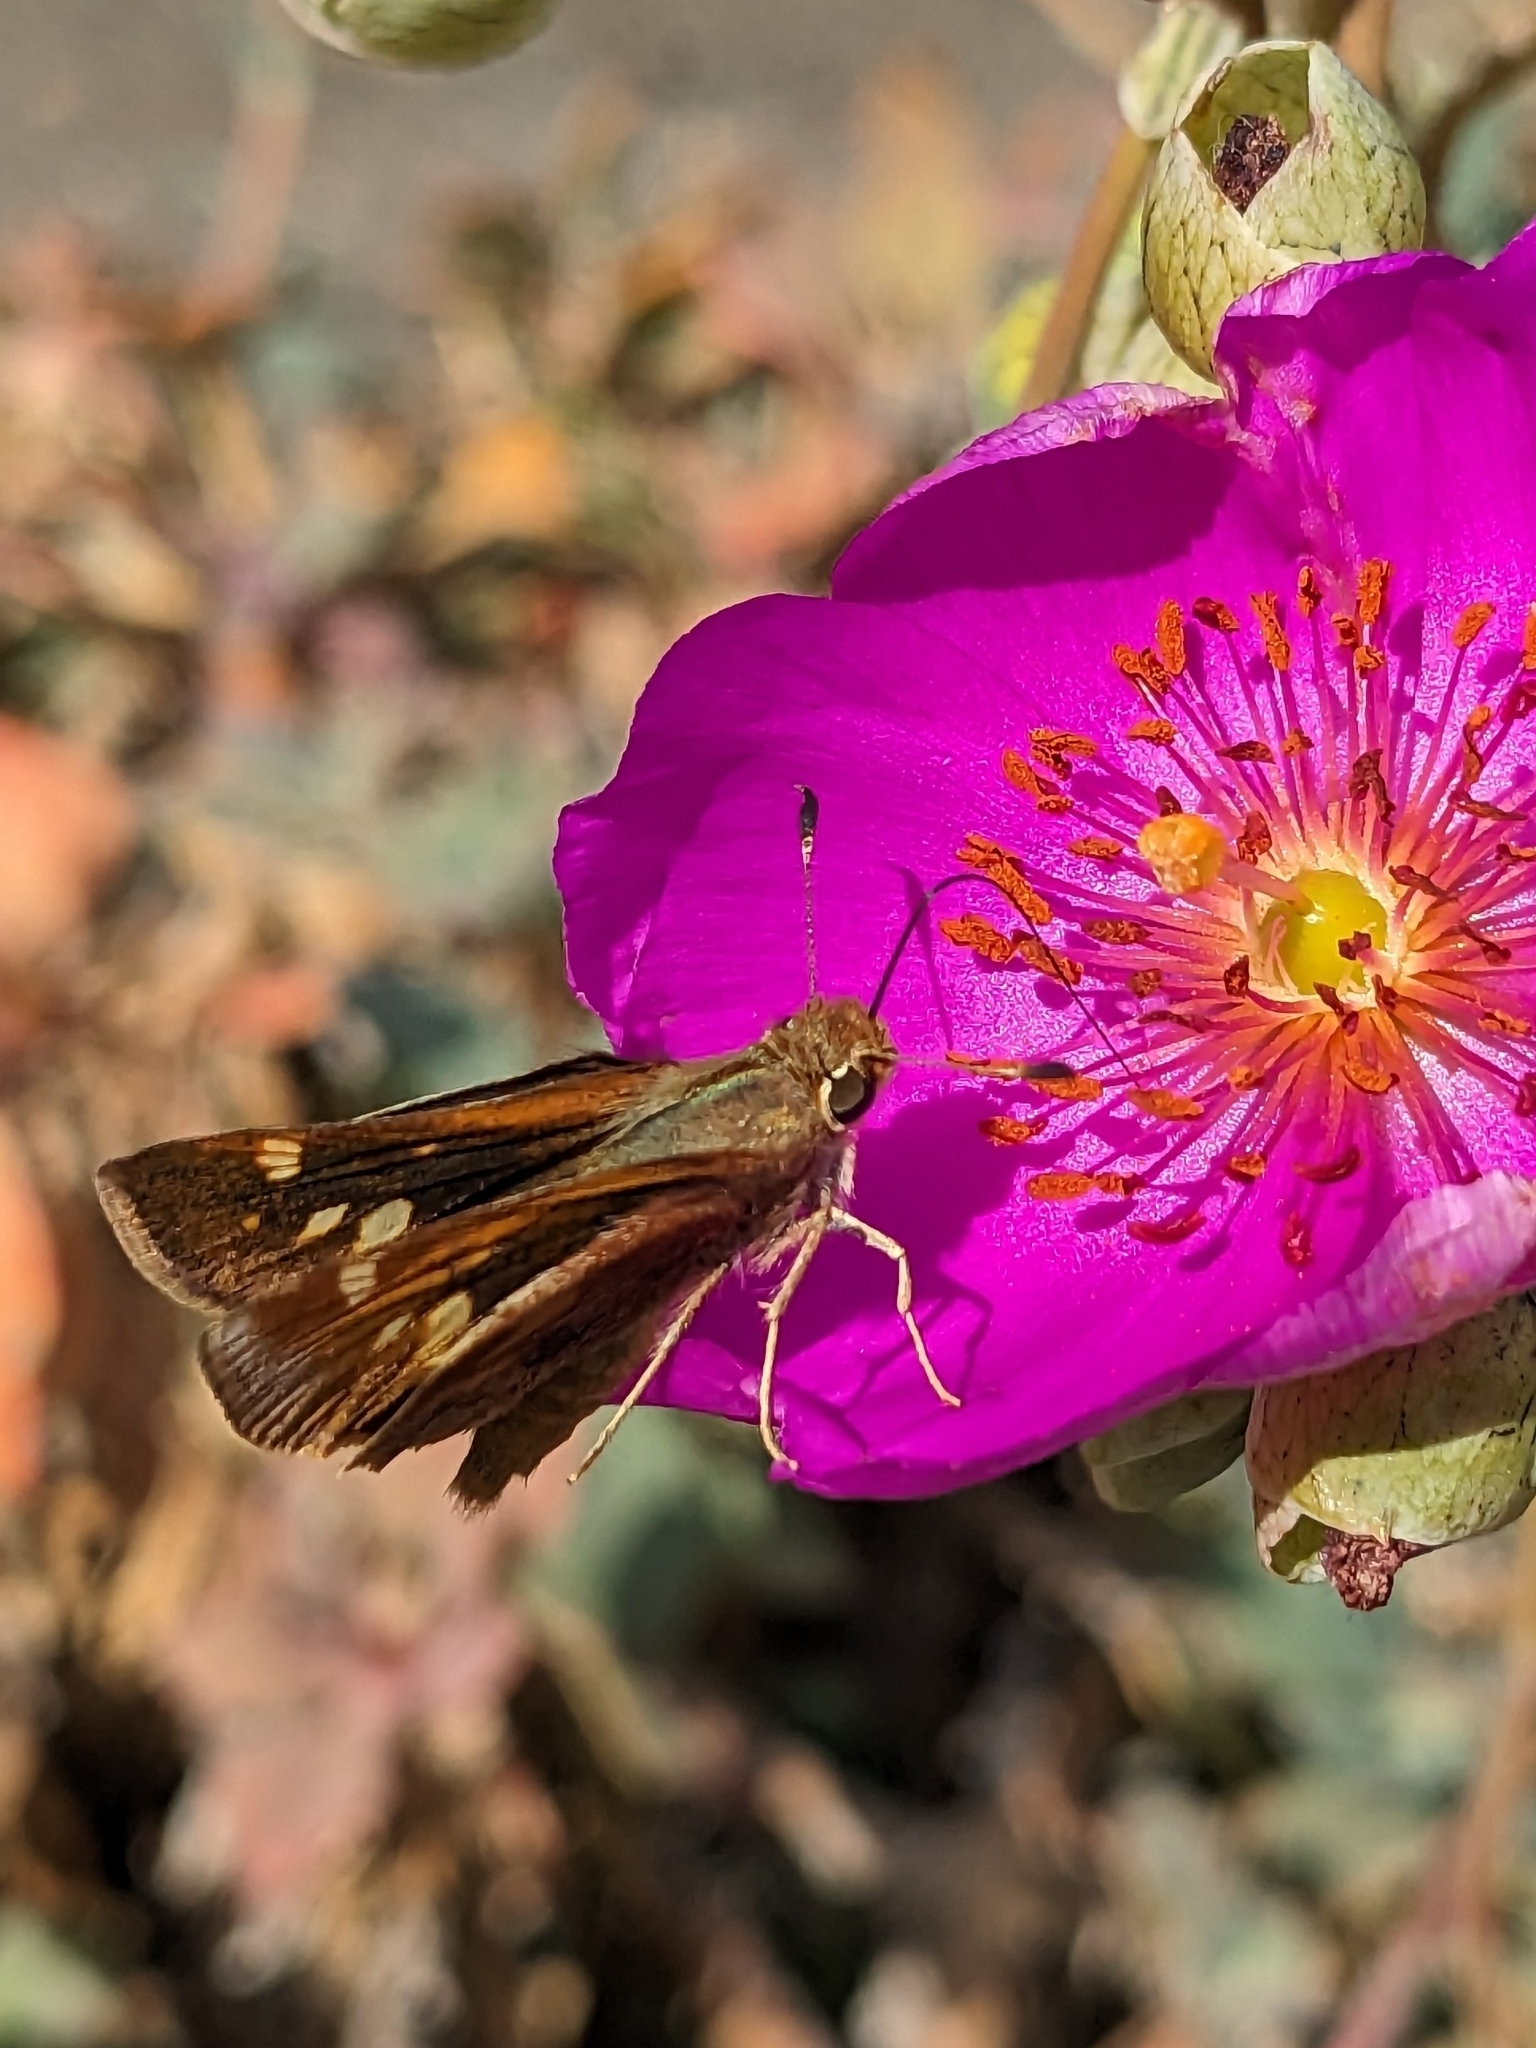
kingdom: Animalia
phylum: Arthropoda
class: Insecta
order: Lepidoptera
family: Hesperiidae
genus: Lon
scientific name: Lon melane
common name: Umber skipper
